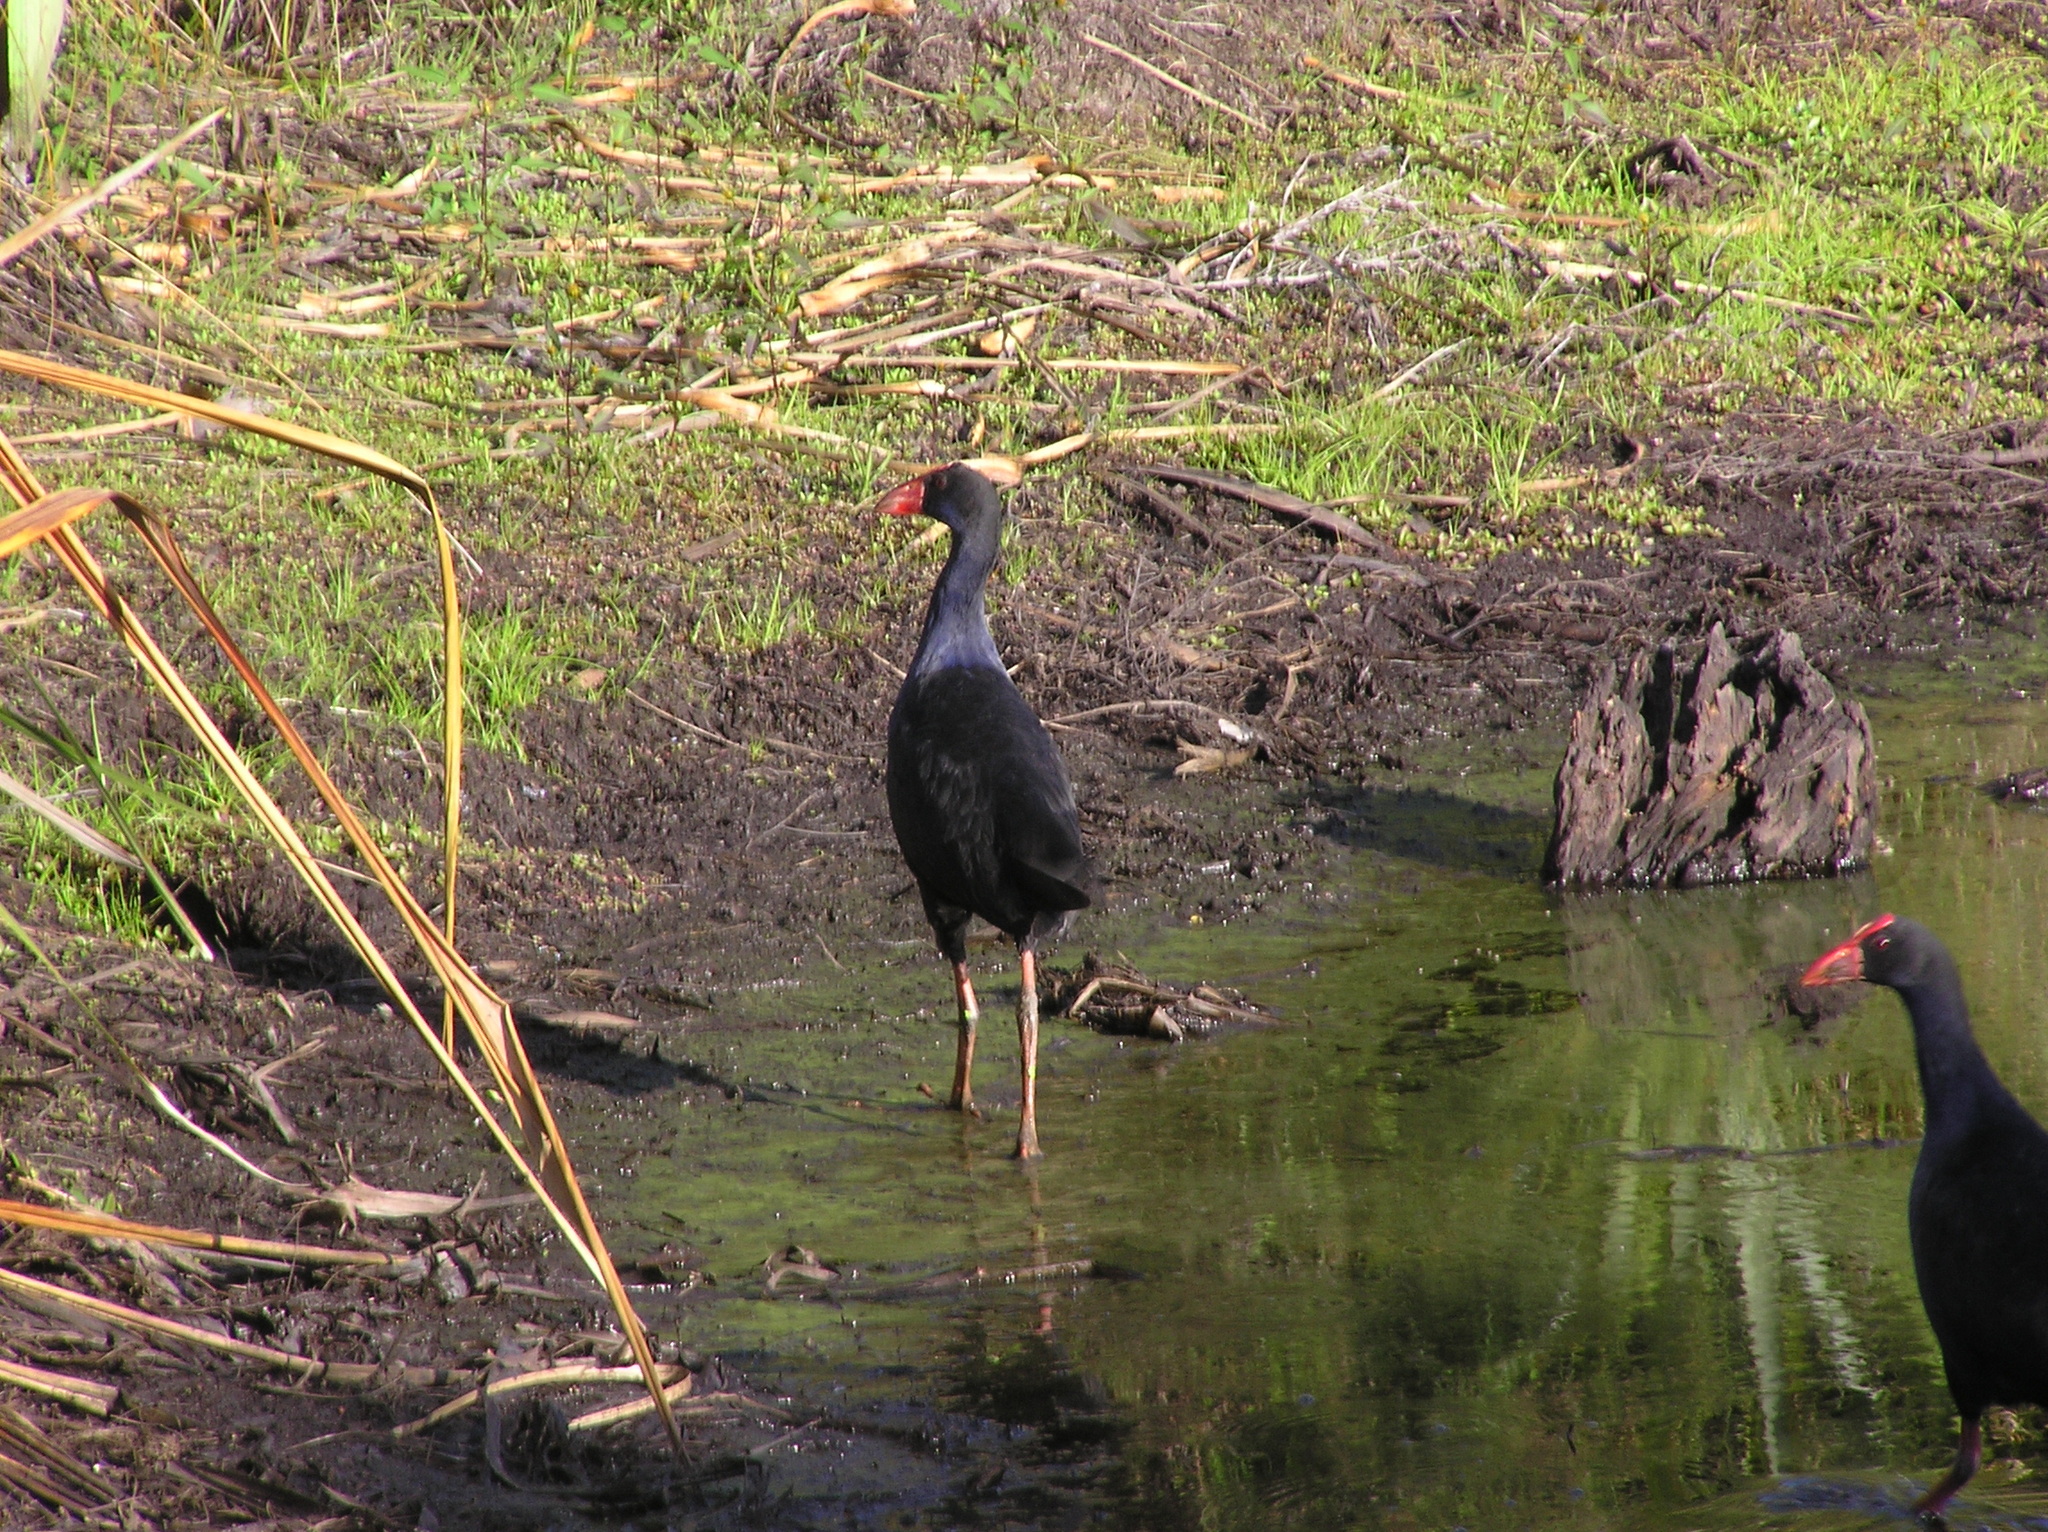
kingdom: Animalia
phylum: Chordata
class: Aves
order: Gruiformes
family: Rallidae
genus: Porphyrio
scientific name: Porphyrio melanotus
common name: Australasian swamphen
